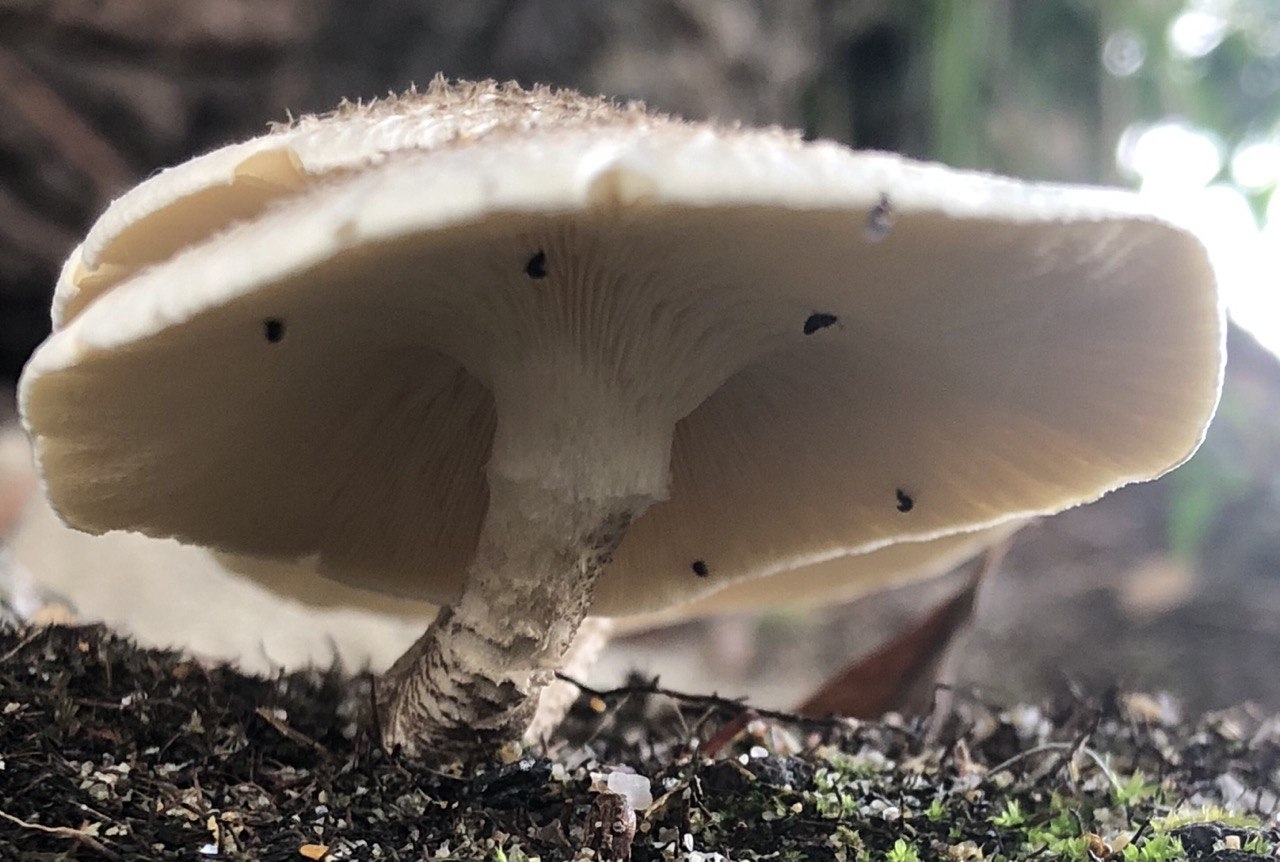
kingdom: Fungi
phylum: Basidiomycota
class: Agaricomycetes
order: Polyporales
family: Polyporaceae
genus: Lentinus
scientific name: Lentinus tigrinus
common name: Tiger sawgill
